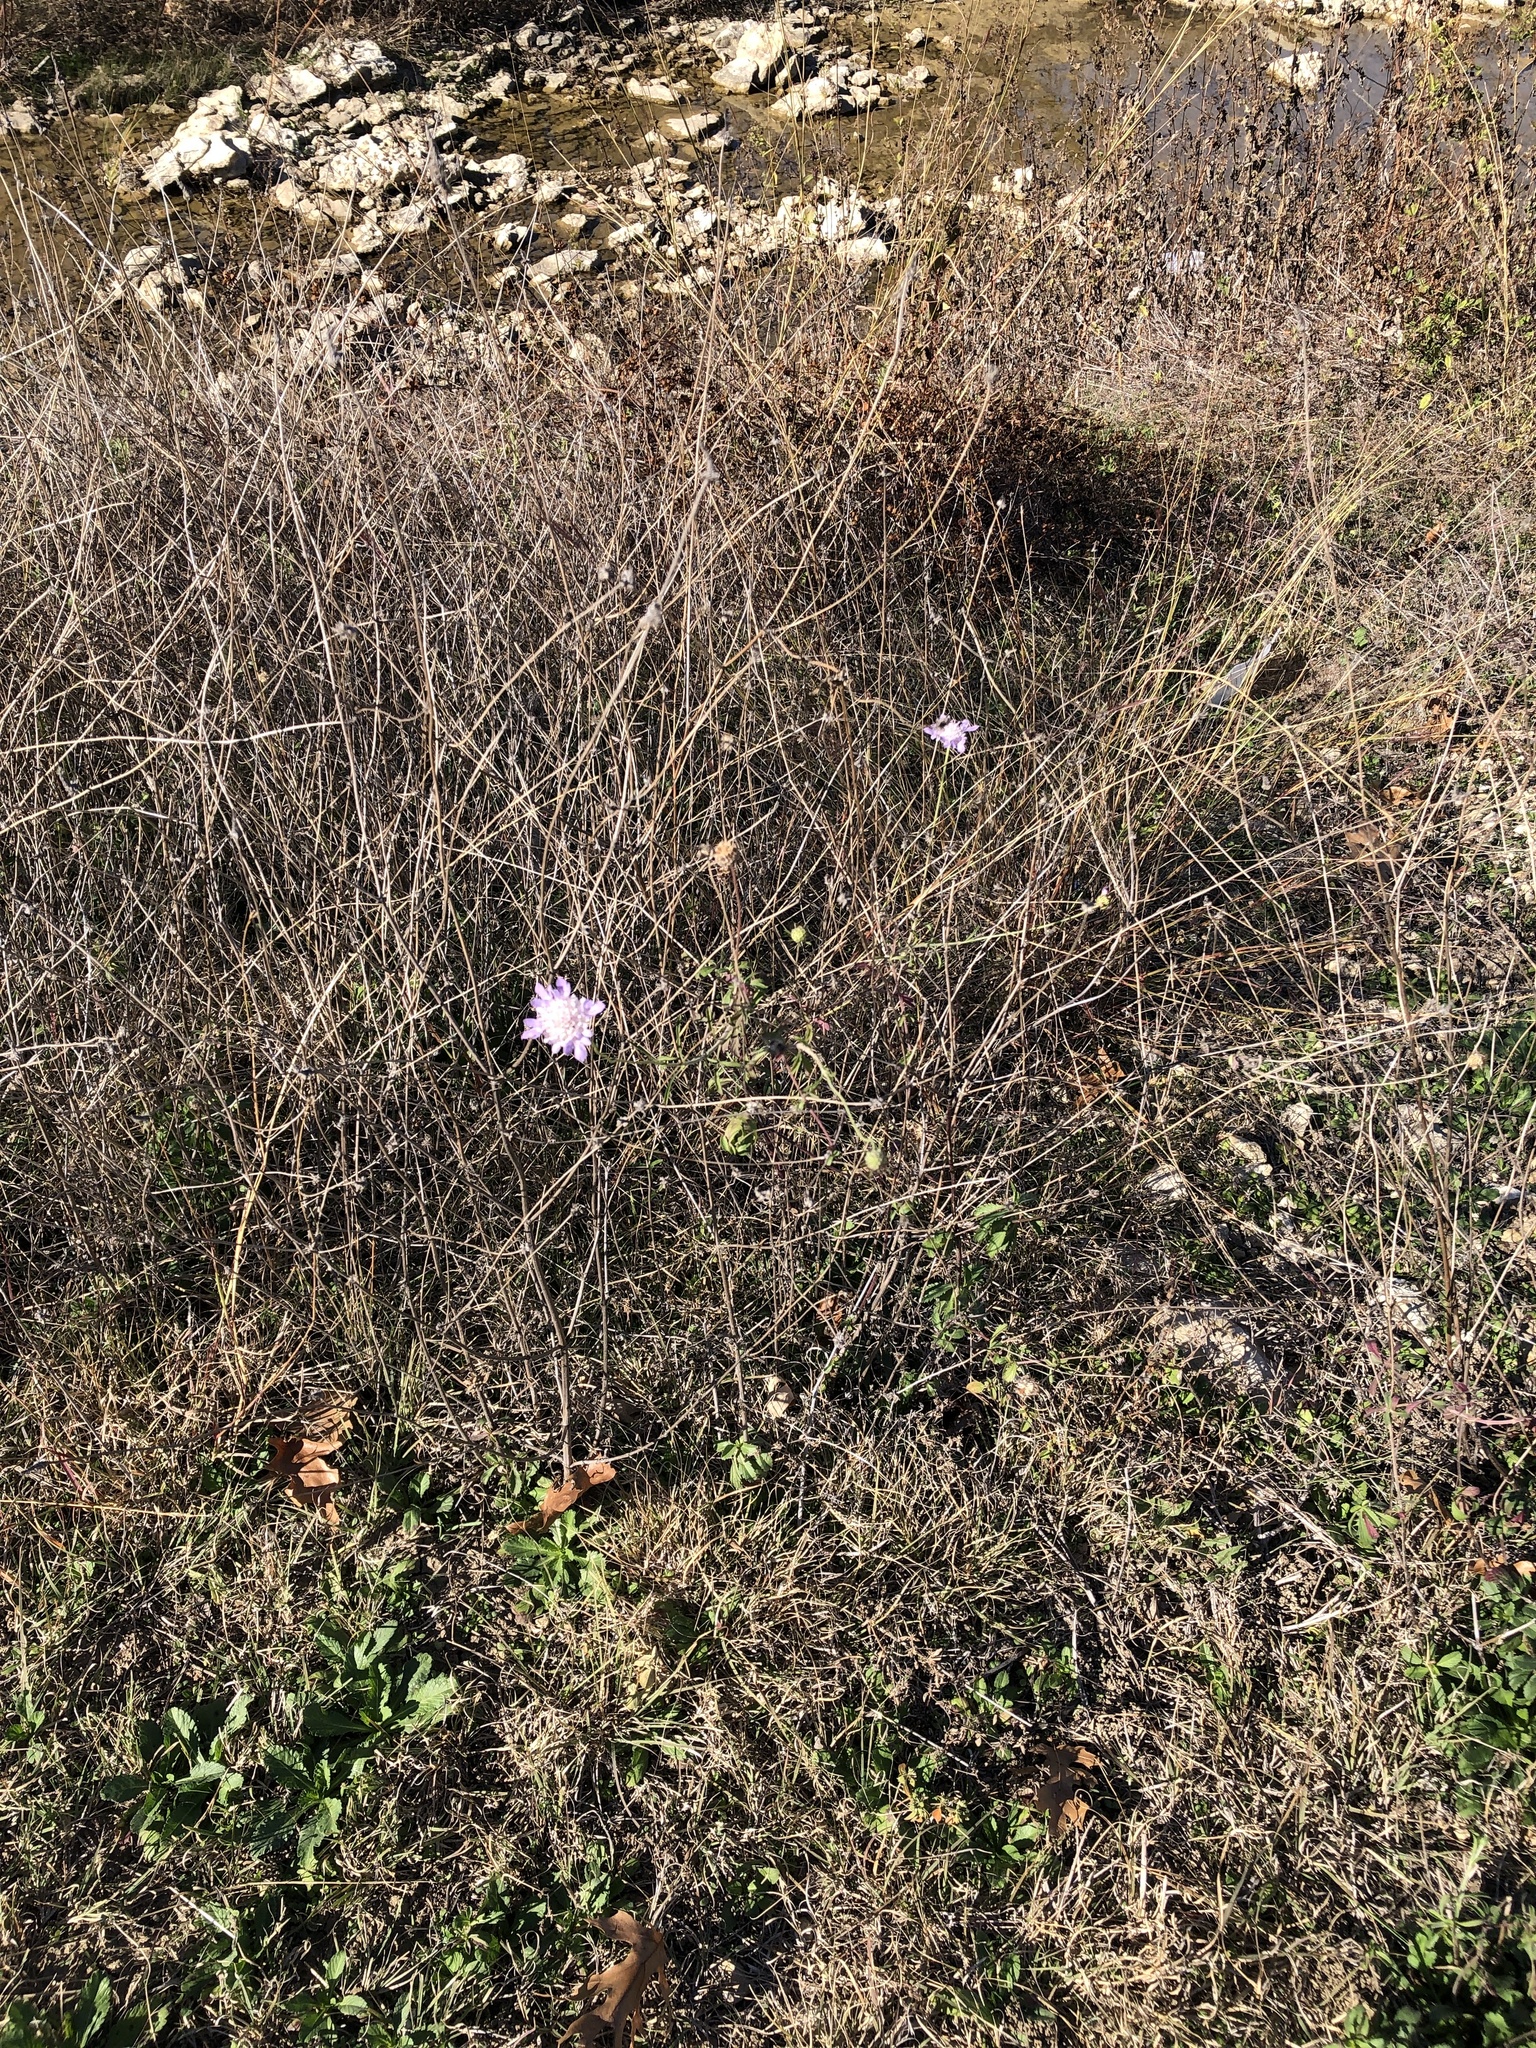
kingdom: Plantae
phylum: Tracheophyta
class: Magnoliopsida
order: Dipsacales
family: Caprifoliaceae
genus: Sixalix
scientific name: Sixalix atropurpurea
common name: Sweet scabious
